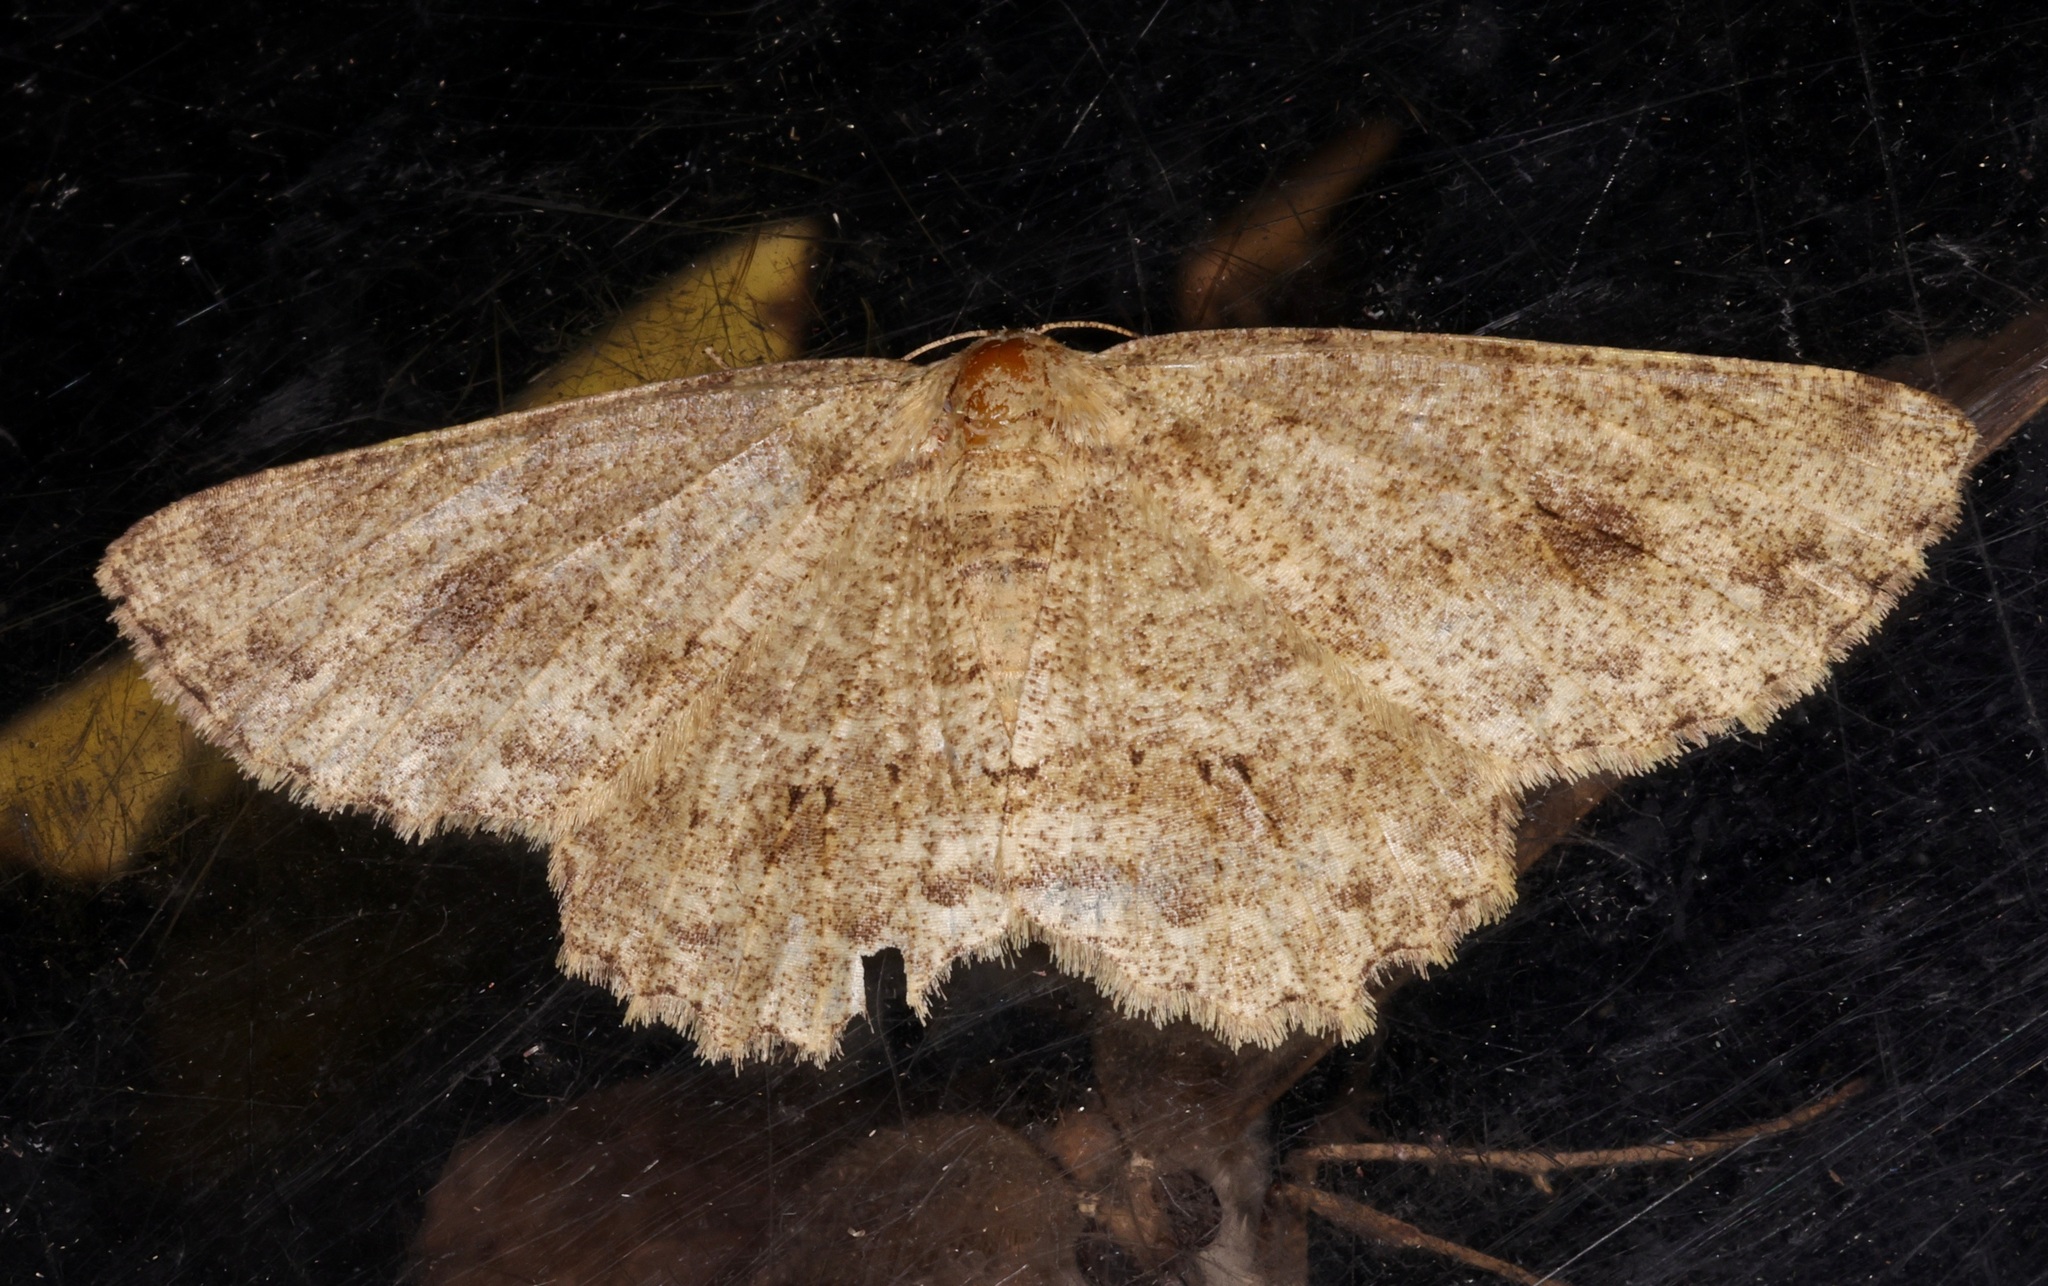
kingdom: Animalia
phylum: Arthropoda
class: Insecta
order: Lepidoptera
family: Geometridae
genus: Ectropis
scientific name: Ectropis bhurmitra
